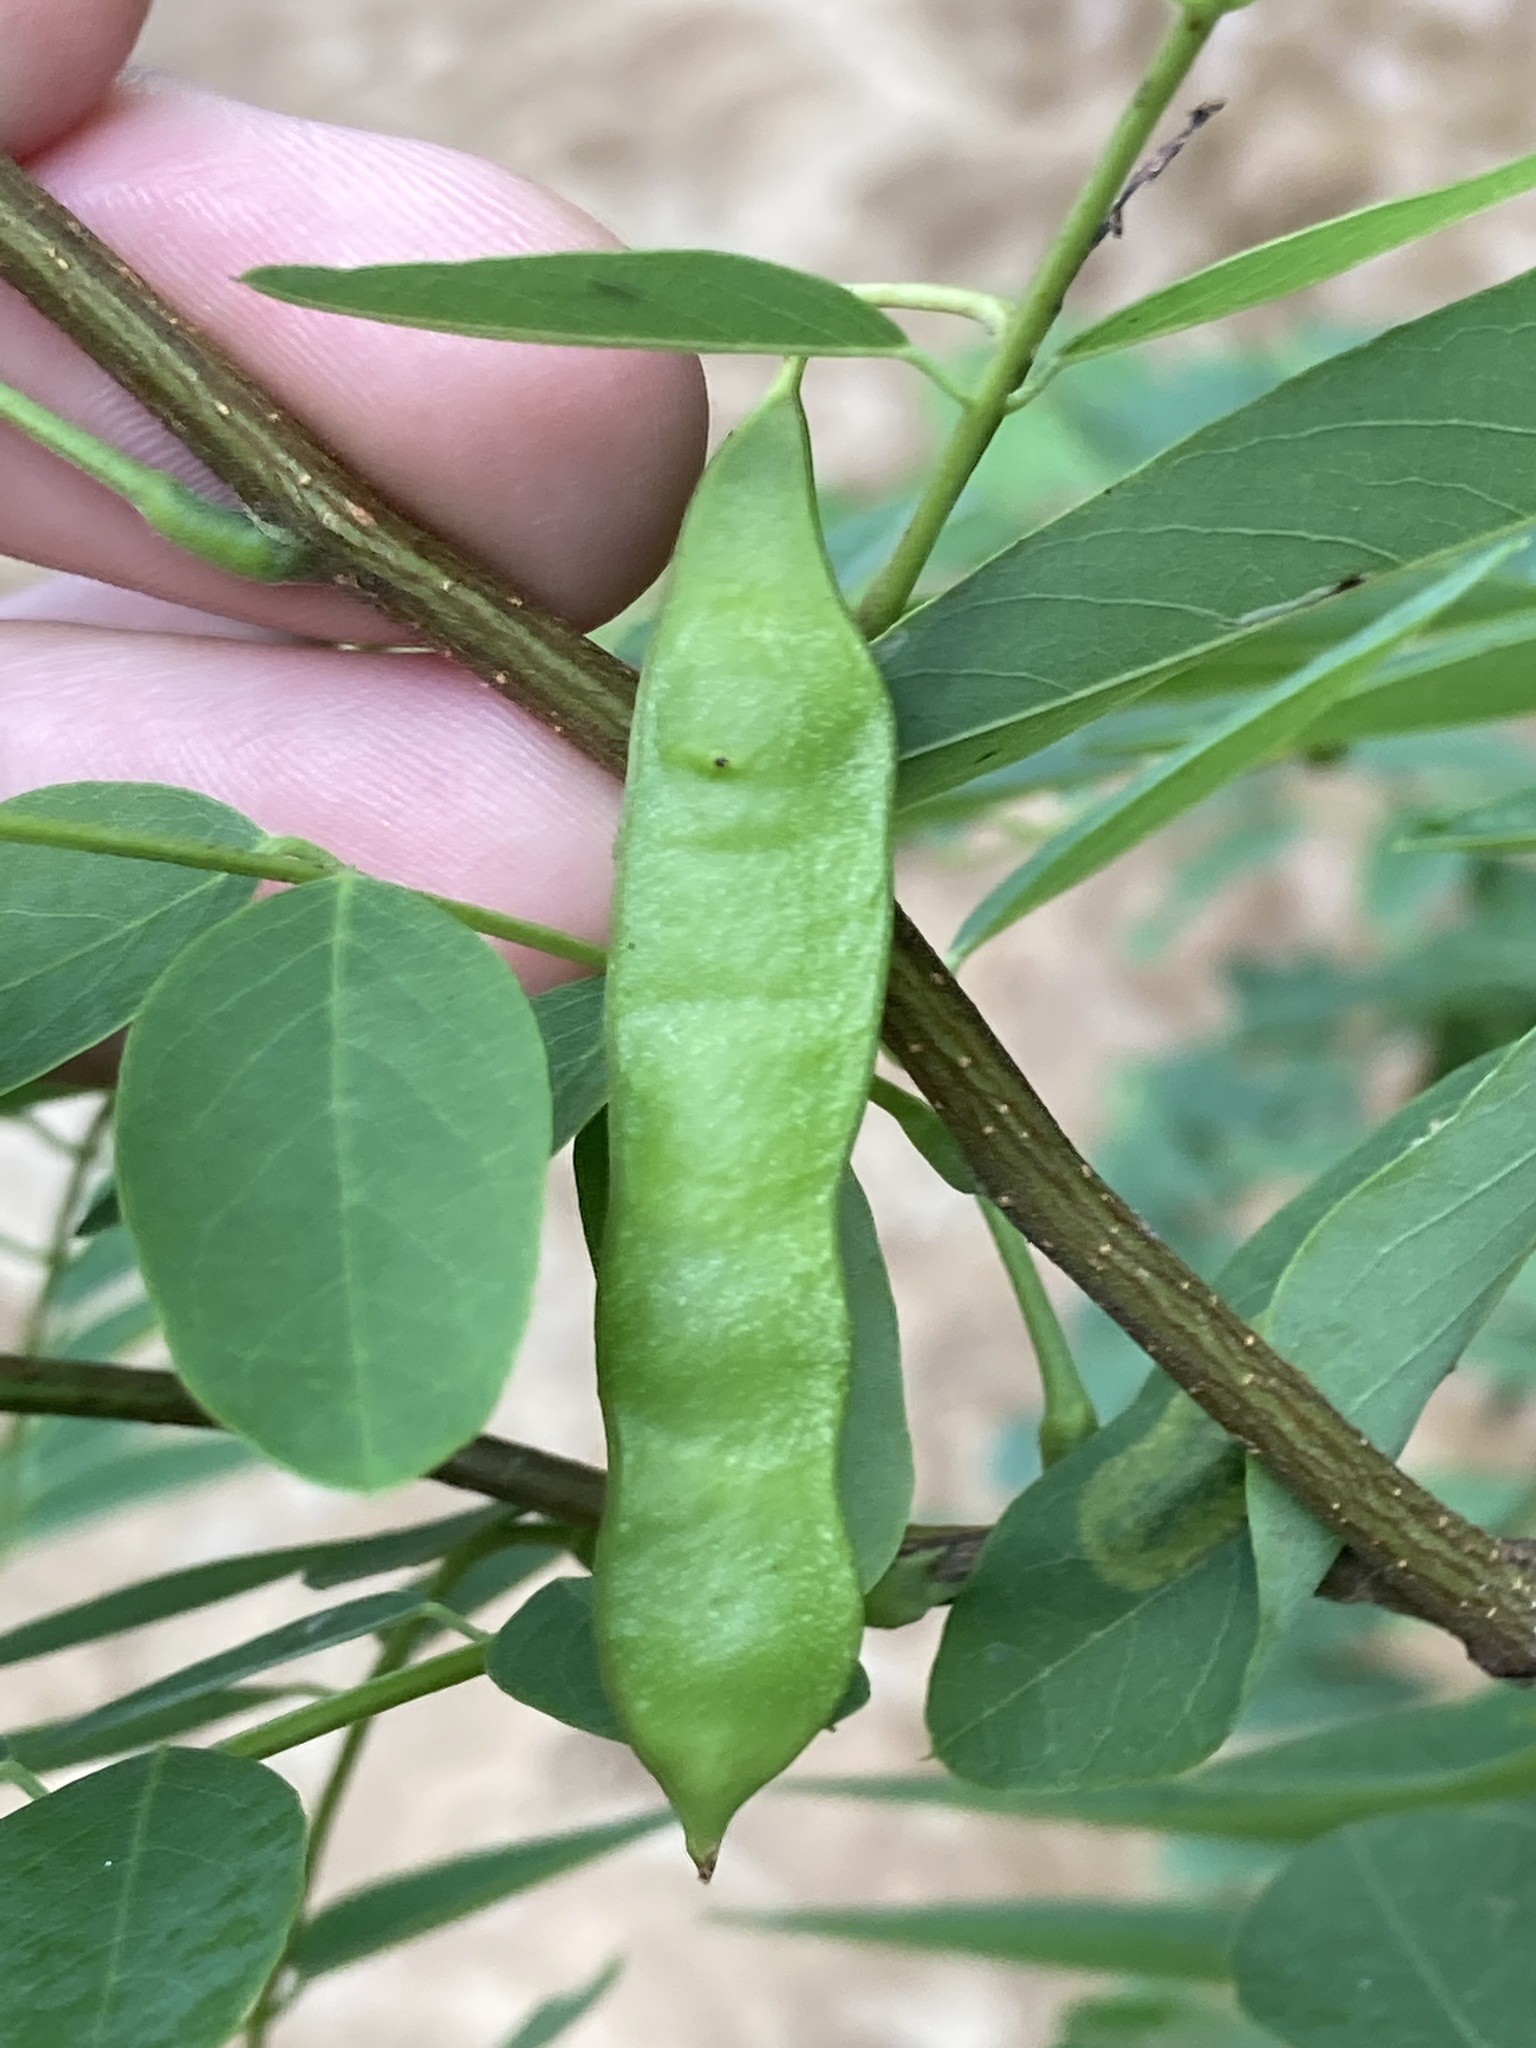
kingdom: Plantae
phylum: Tracheophyta
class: Magnoliopsida
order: Fabales
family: Fabaceae
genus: Robinia
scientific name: Robinia pseudoacacia
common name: Black locust
